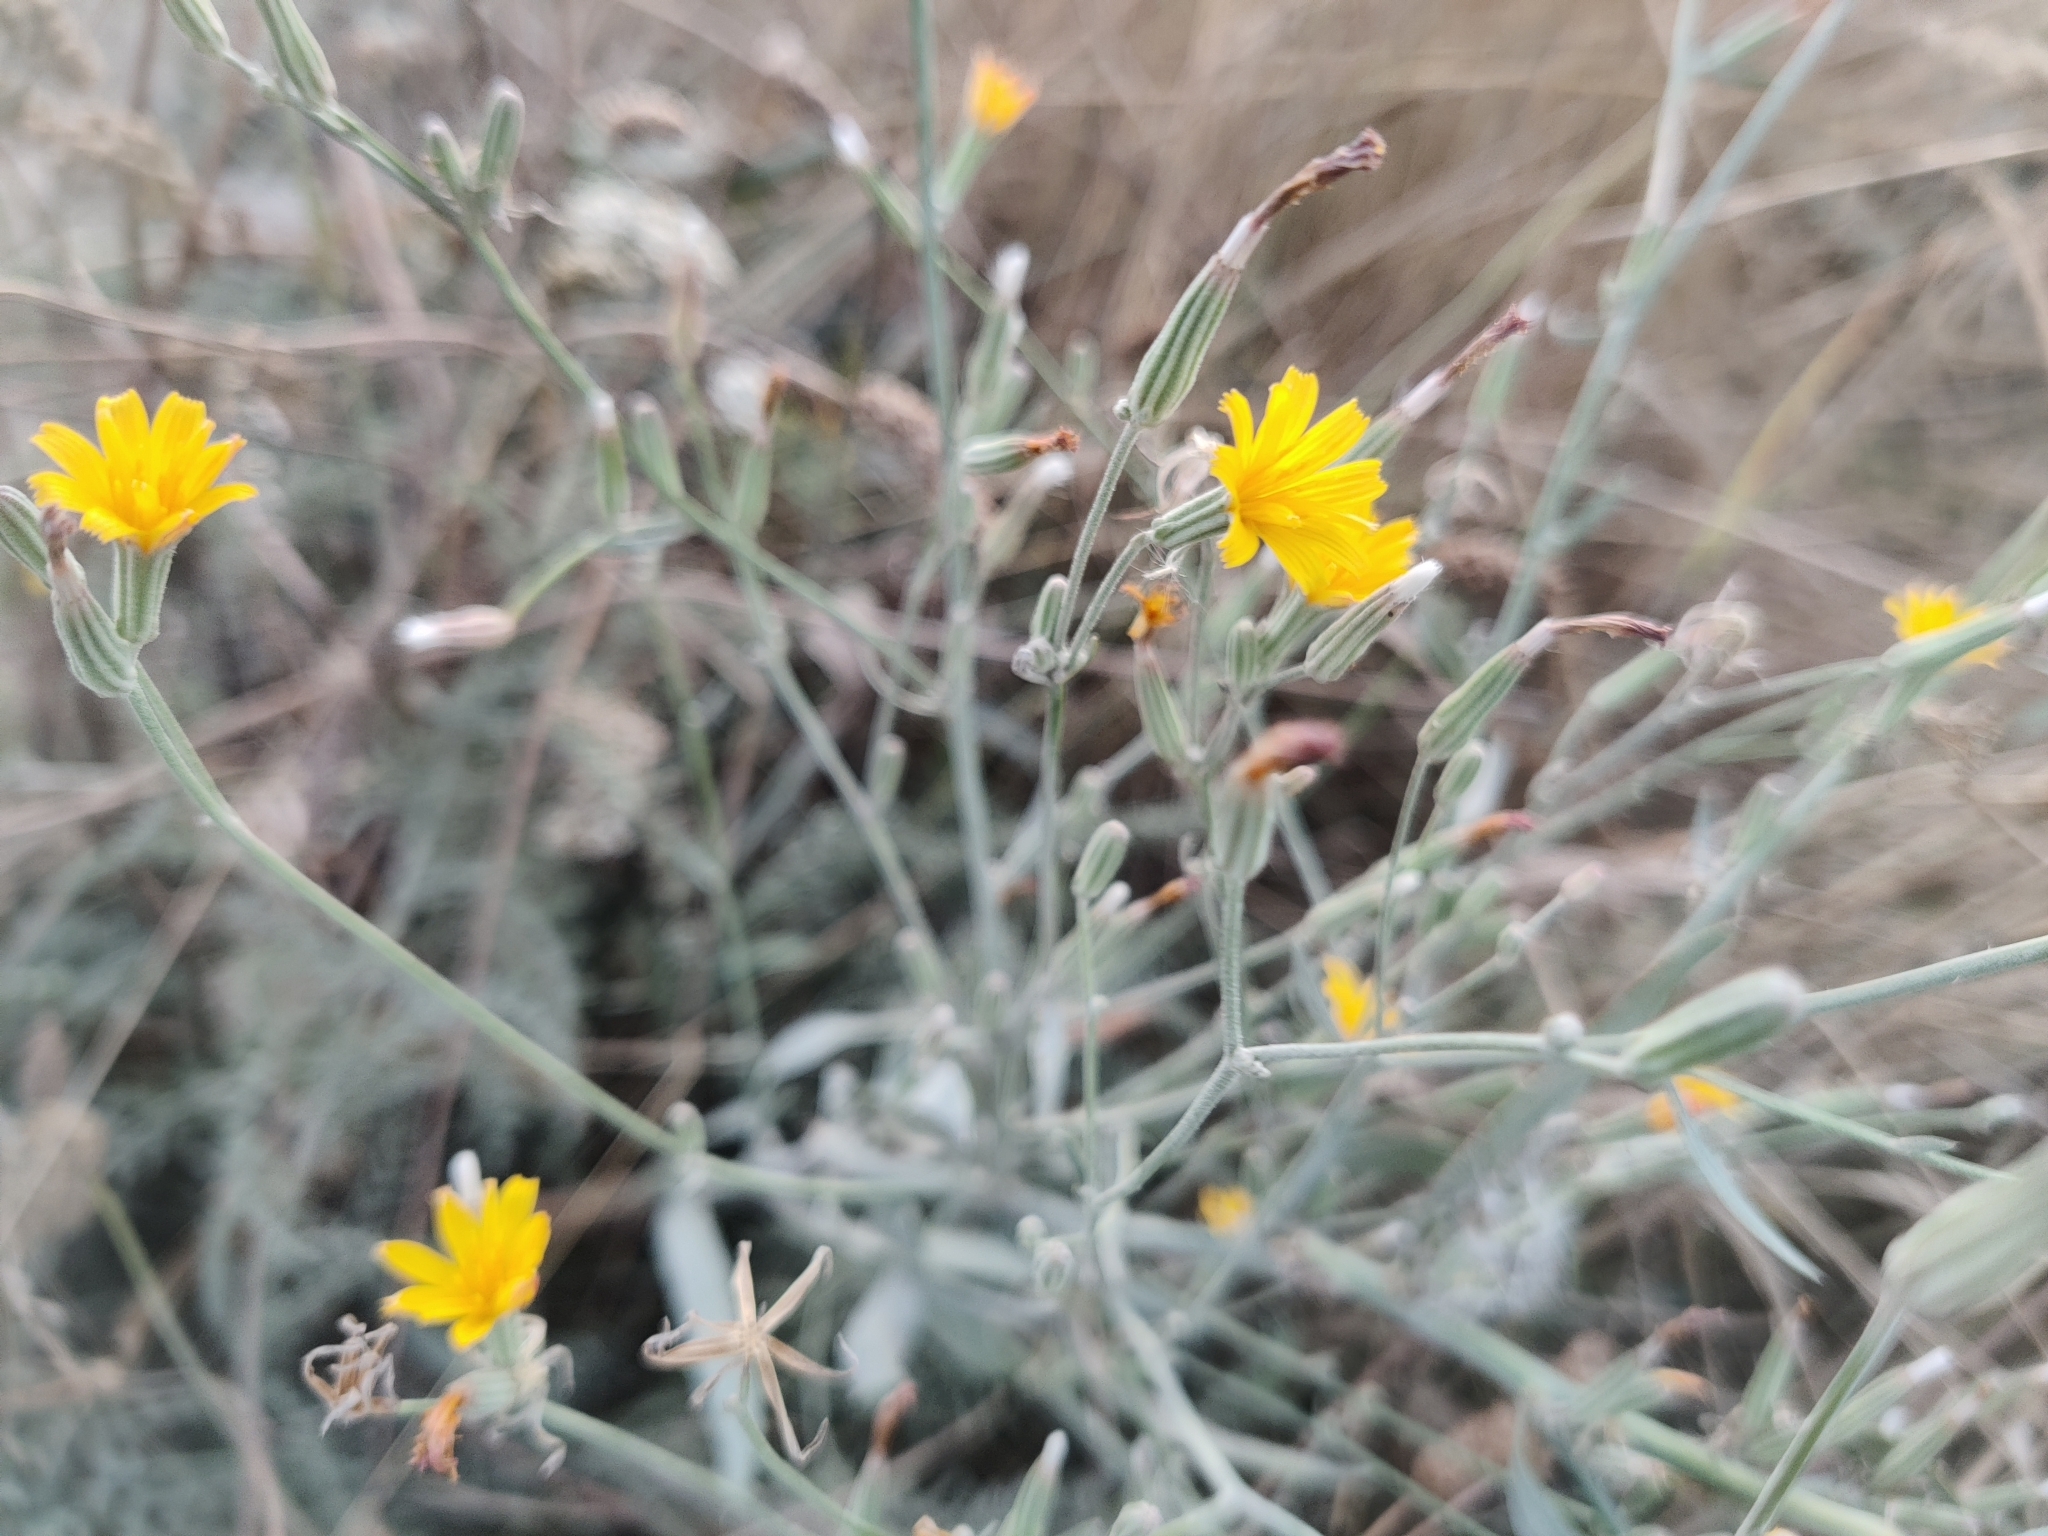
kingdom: Plantae
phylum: Tracheophyta
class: Magnoliopsida
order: Asterales
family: Asteraceae
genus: Chondrilla
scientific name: Chondrilla juncea
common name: Skeleton weed
